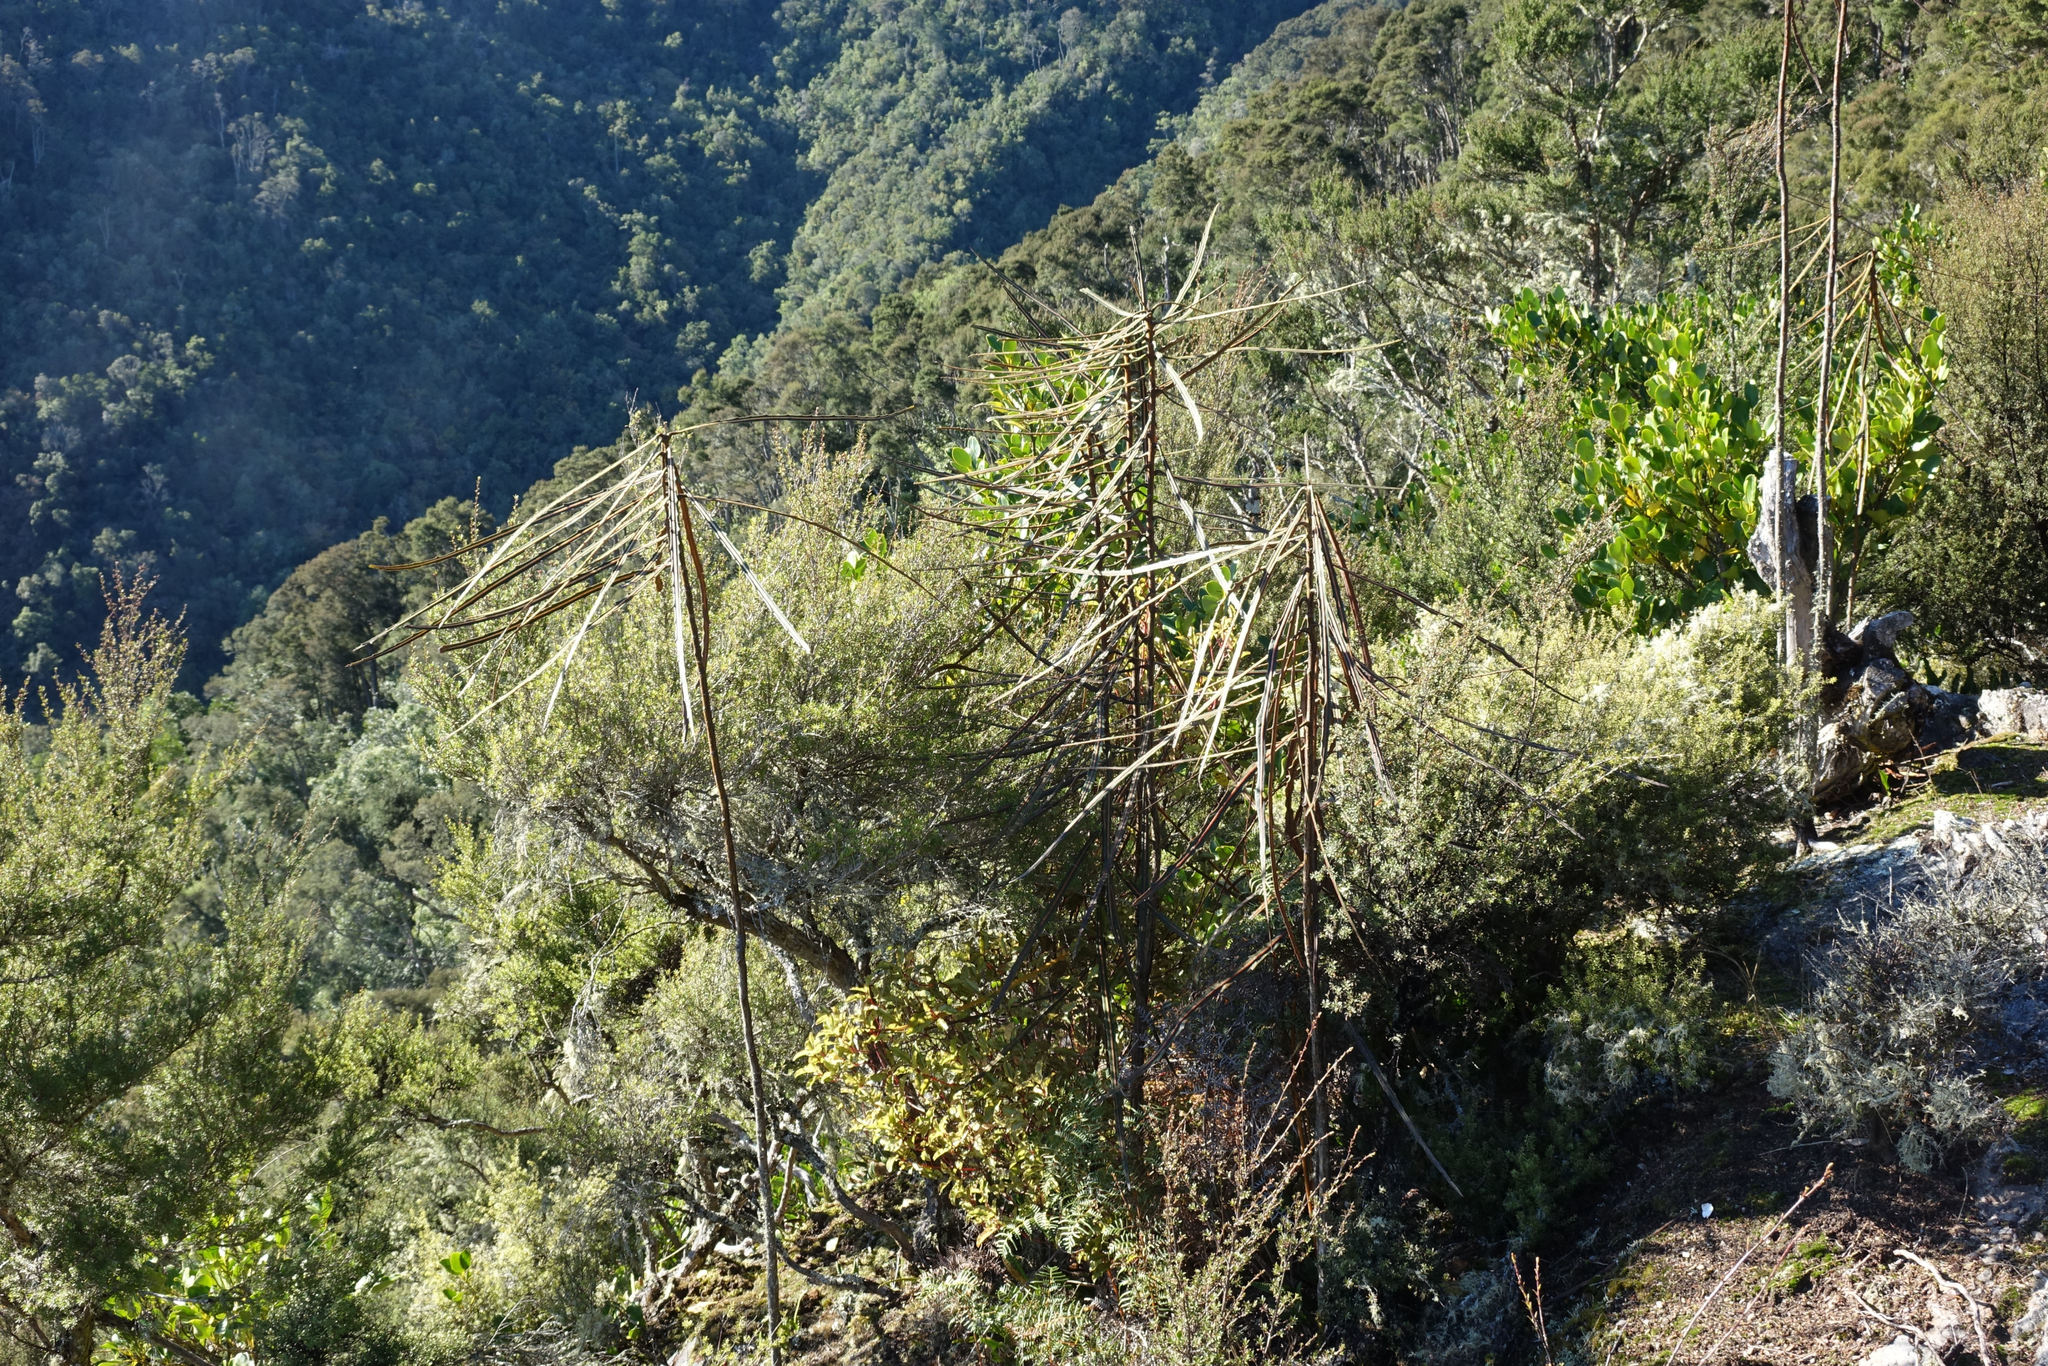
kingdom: Plantae
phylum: Tracheophyta
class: Magnoliopsida
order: Apiales
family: Araliaceae
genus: Pseudopanax
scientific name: Pseudopanax crassifolius
